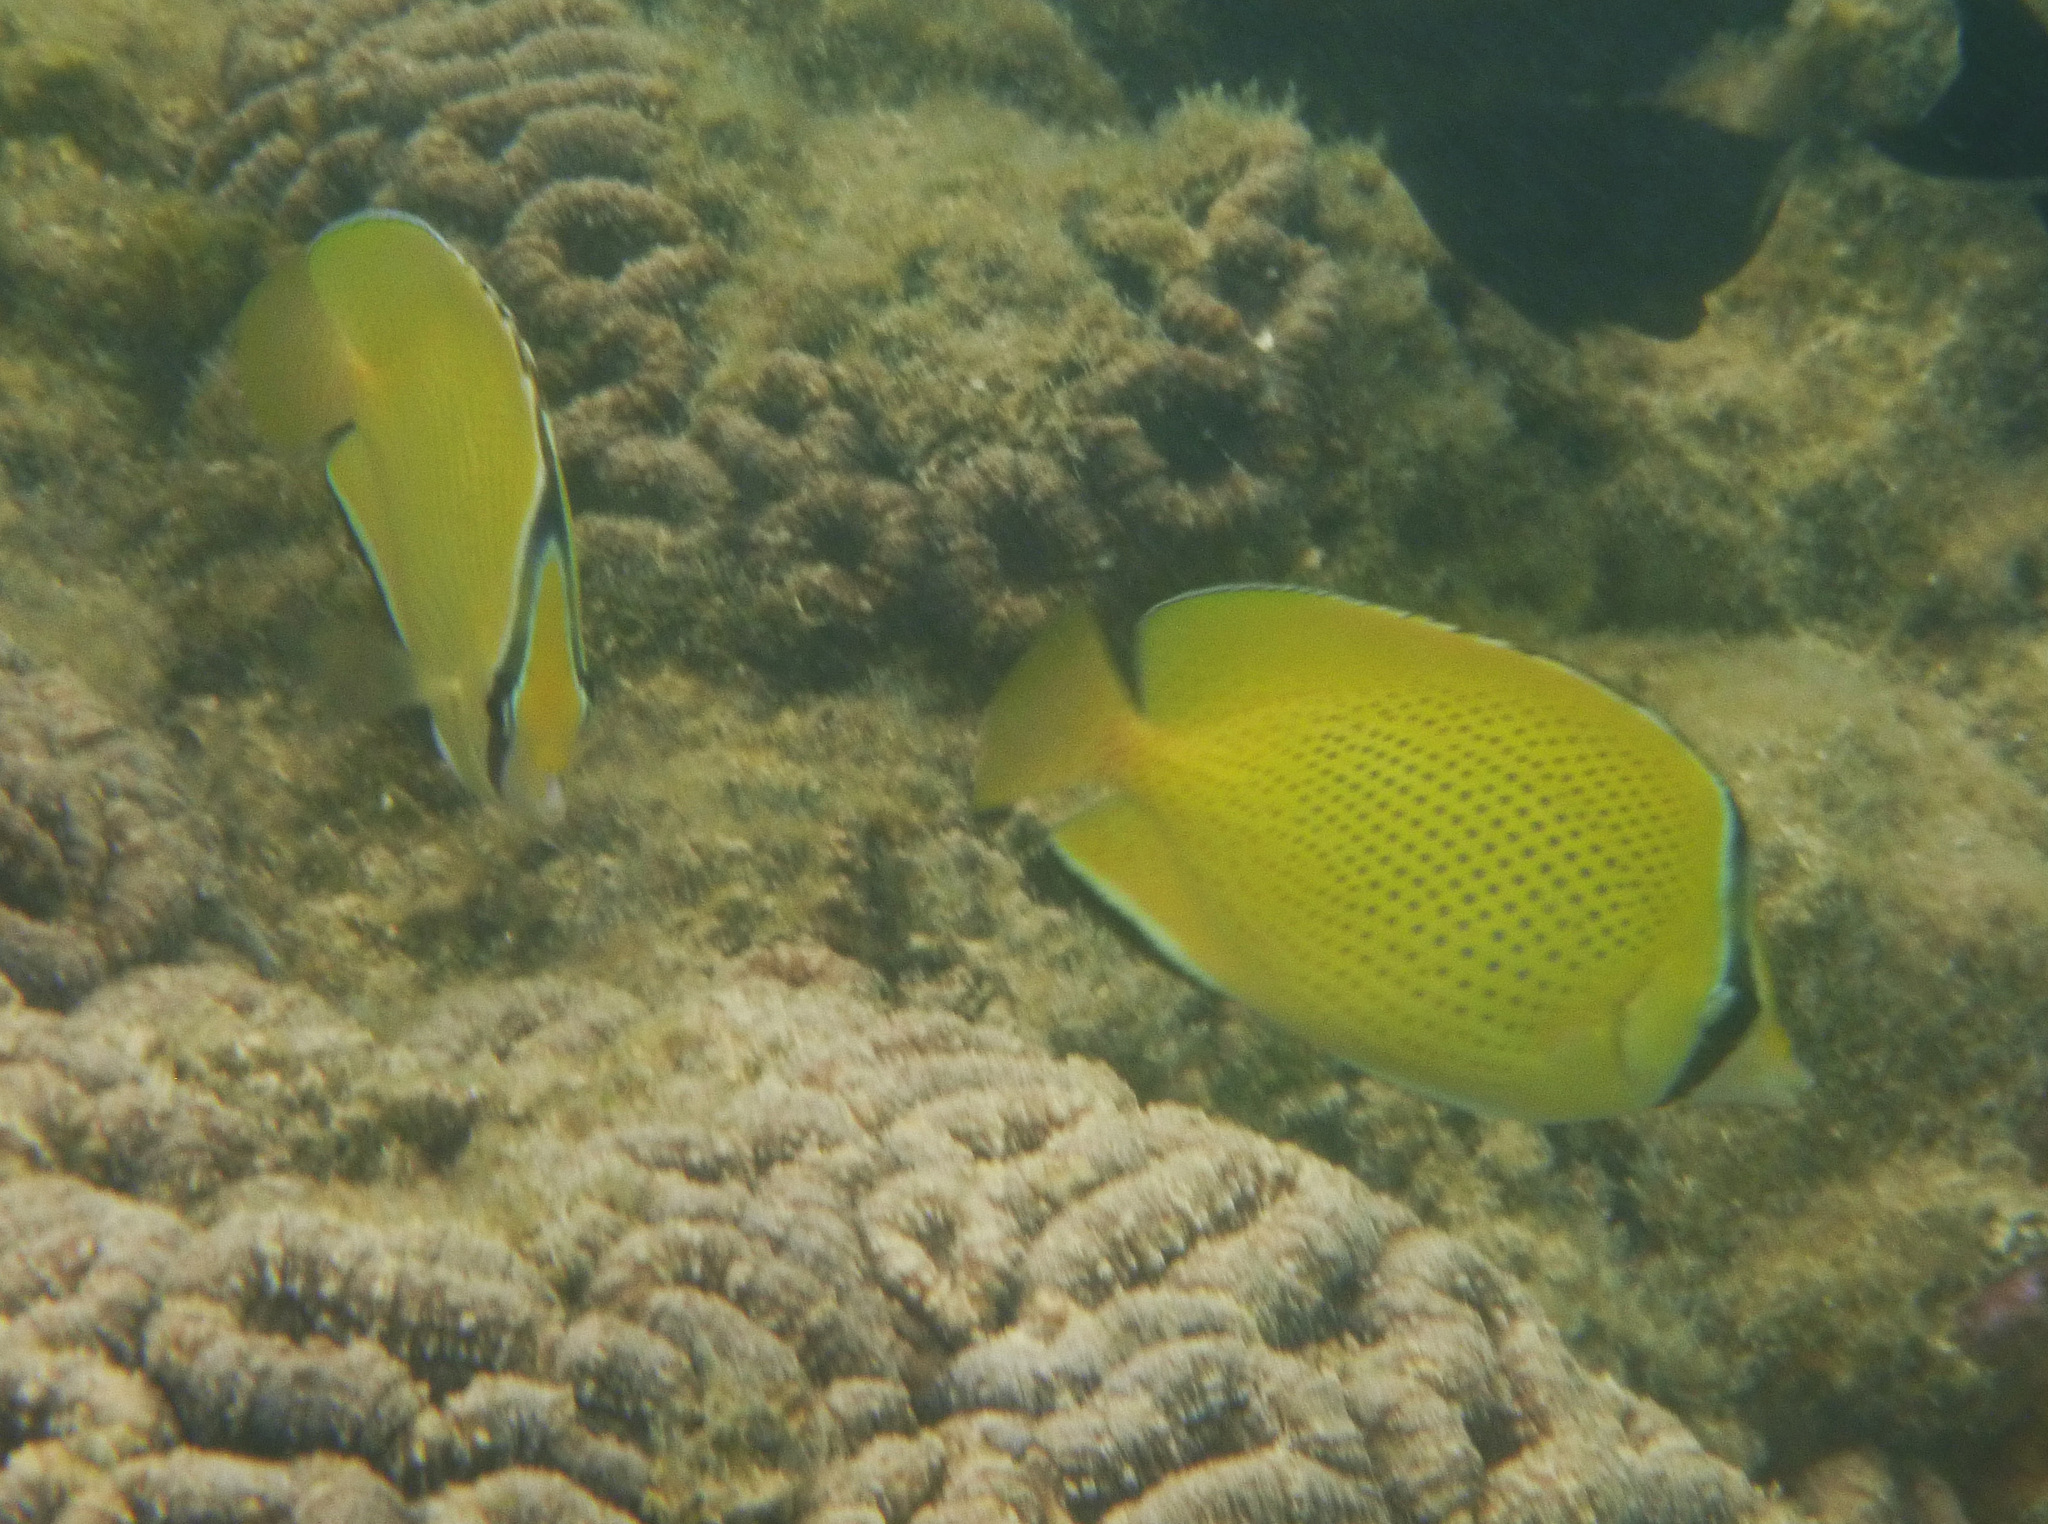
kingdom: Animalia
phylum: Chordata
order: Perciformes
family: Chaetodontidae
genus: Chaetodon
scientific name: Chaetodon citrinellus
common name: Speckled butterflyfish
